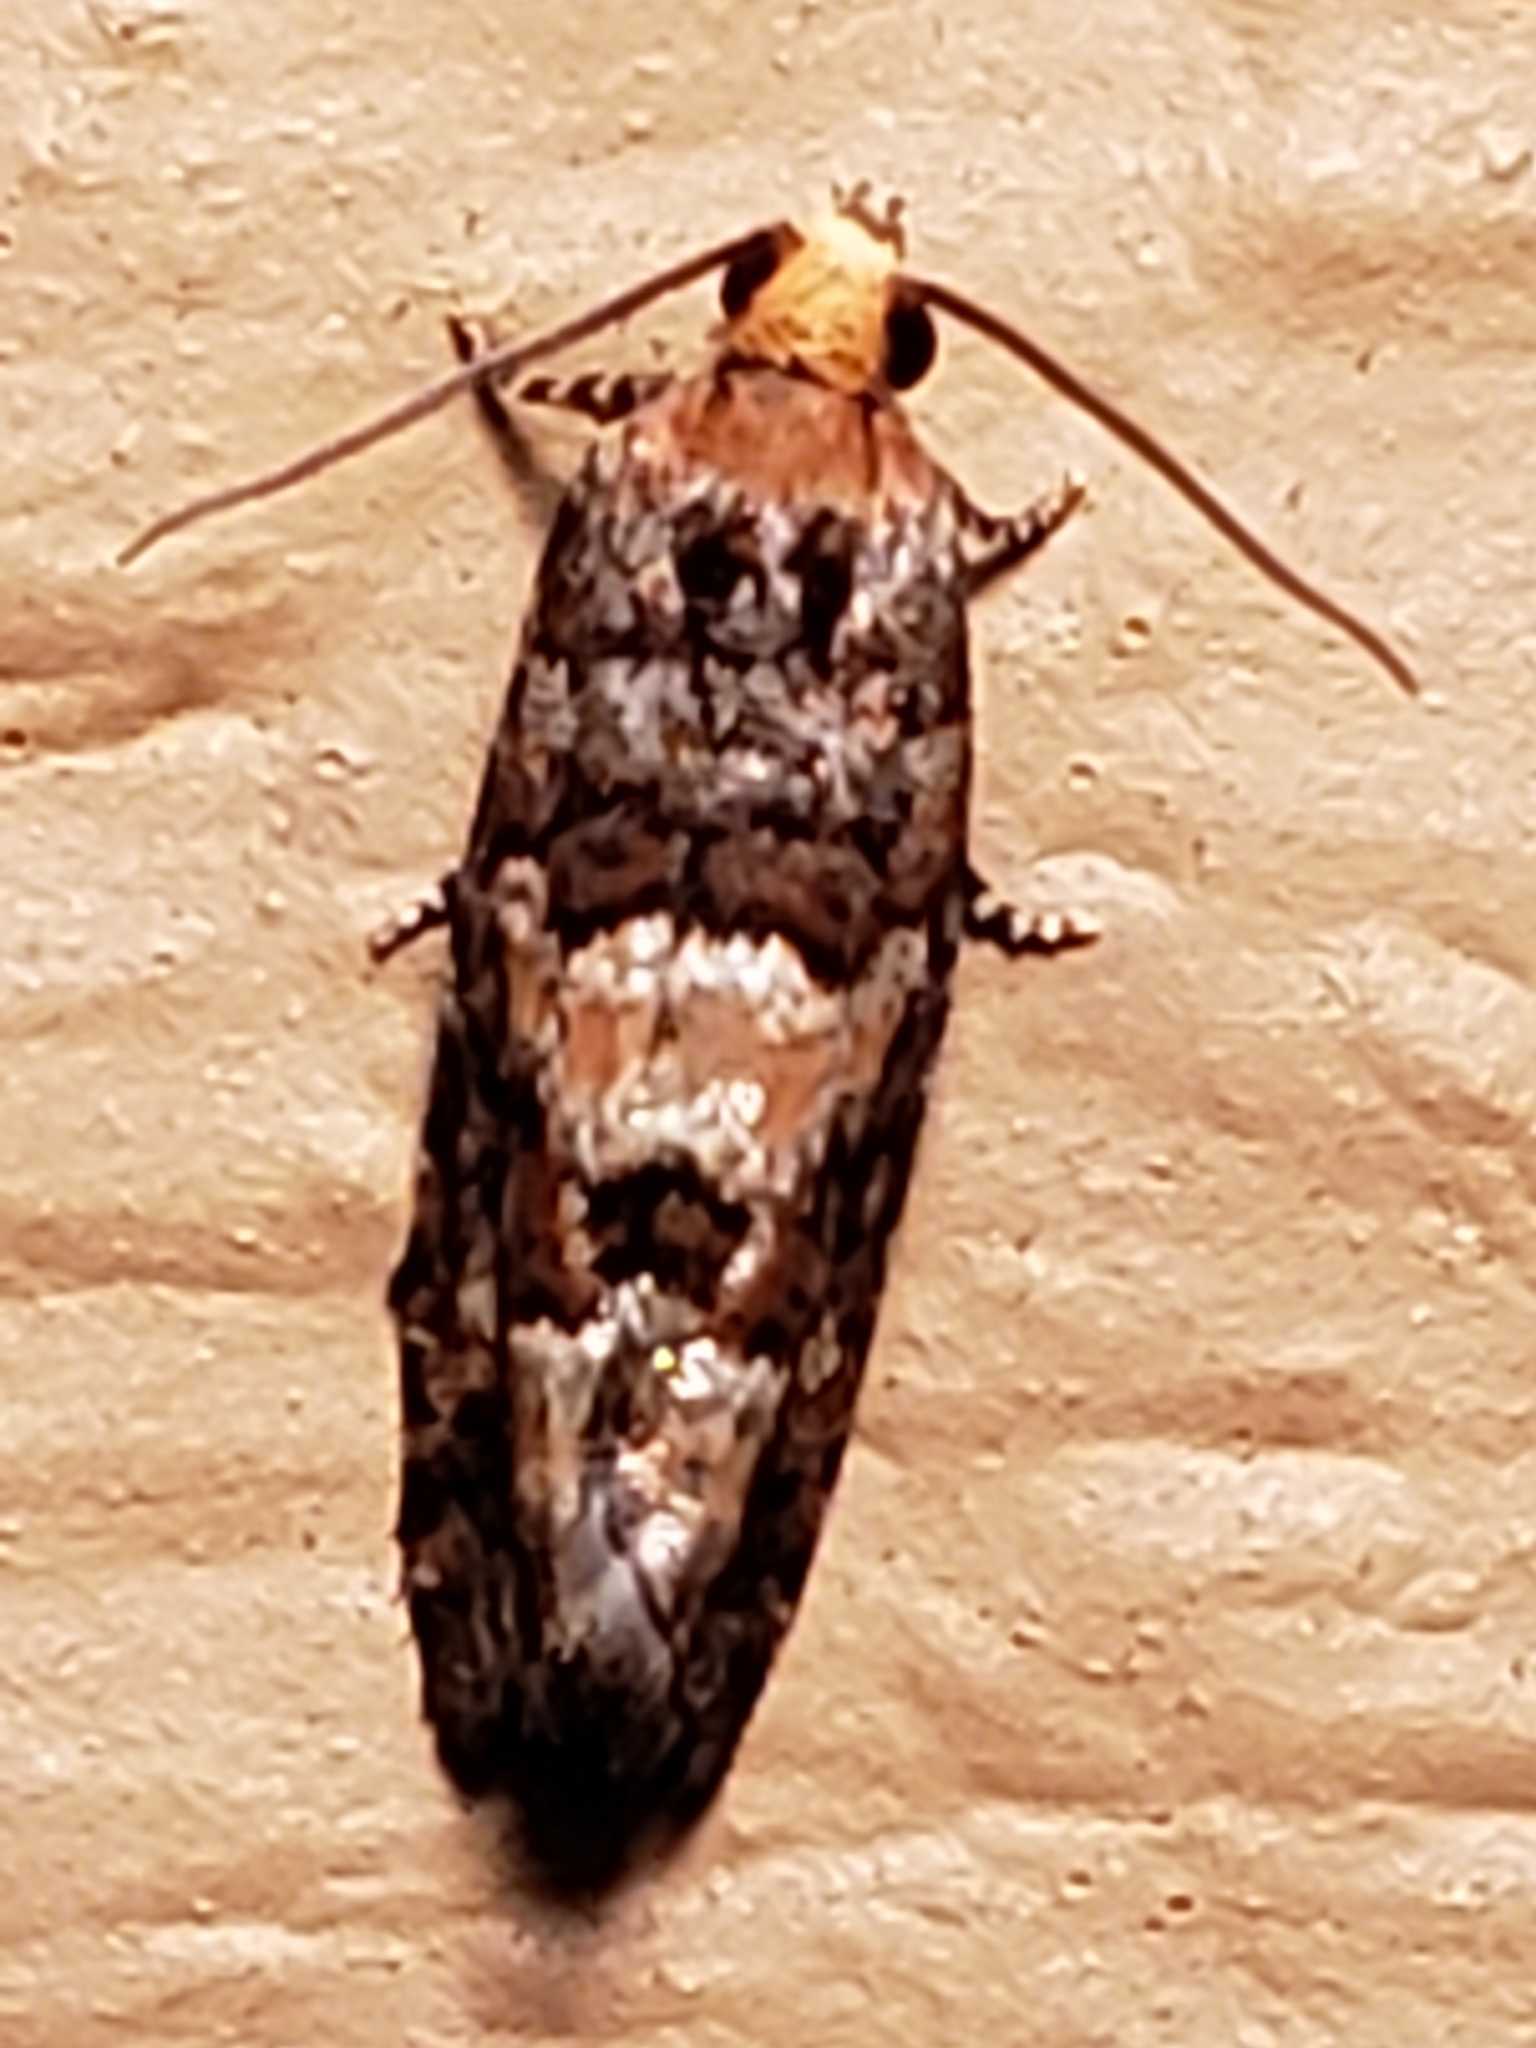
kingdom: Animalia
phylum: Arthropoda
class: Insecta
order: Lepidoptera
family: Tortricidae
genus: Eucopina
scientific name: Eucopina tocullionana
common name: White pinecone borer moth
